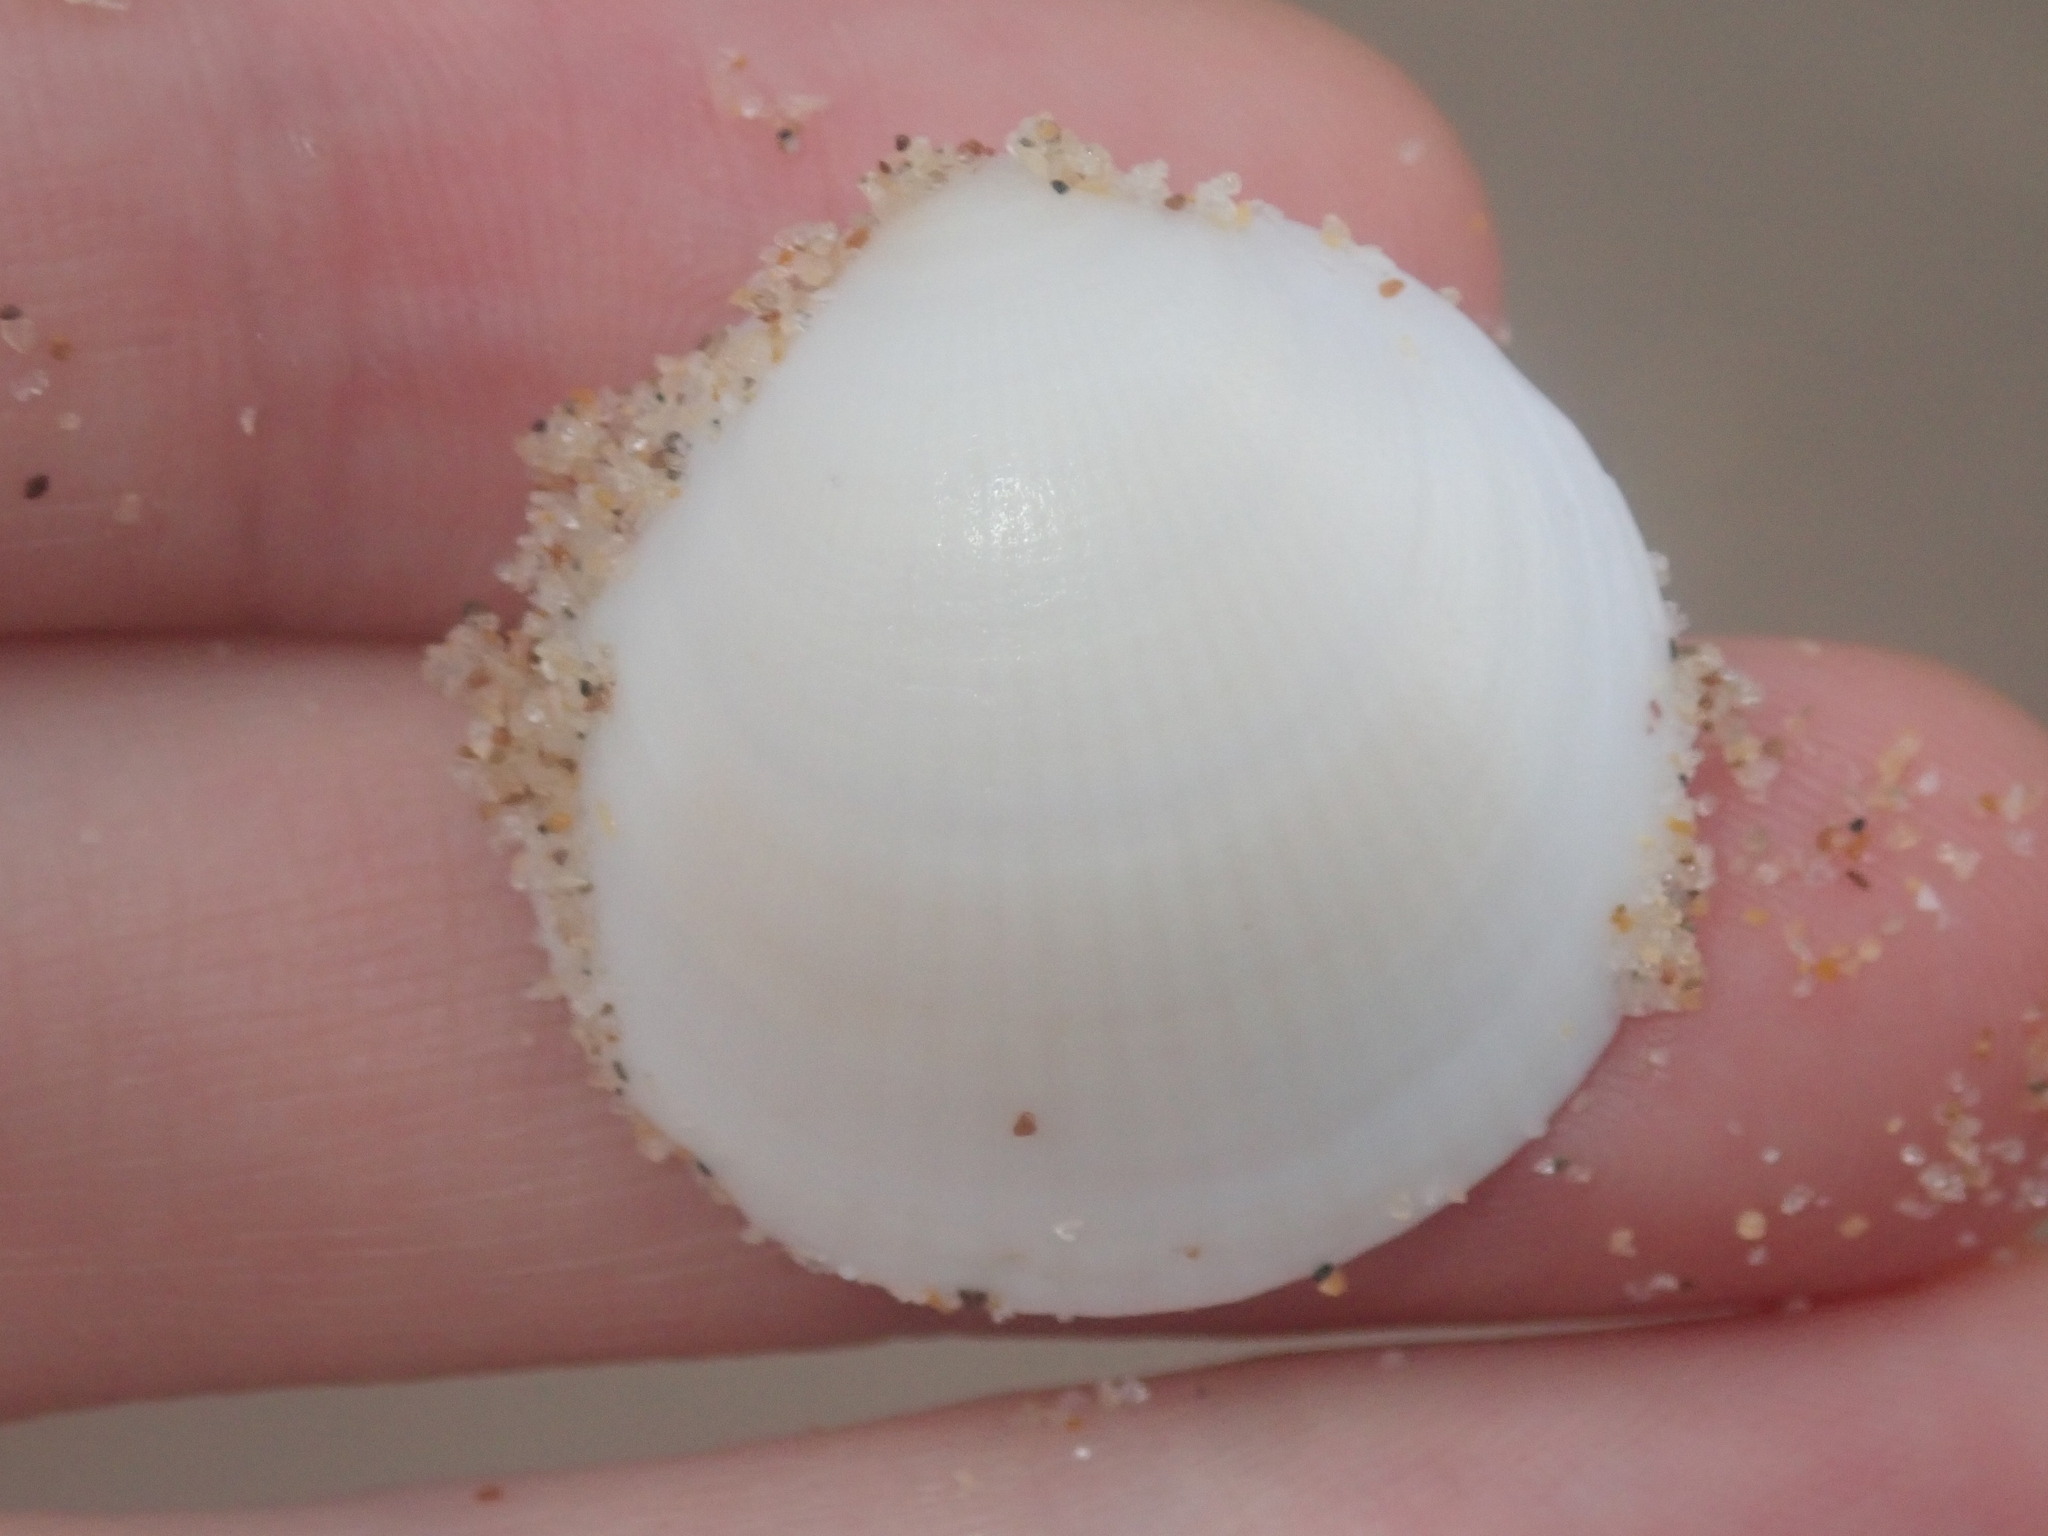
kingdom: Animalia
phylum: Mollusca
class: Bivalvia
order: Arcida
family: Glycymerididae
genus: Glycymeris
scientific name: Glycymeris holoserica
